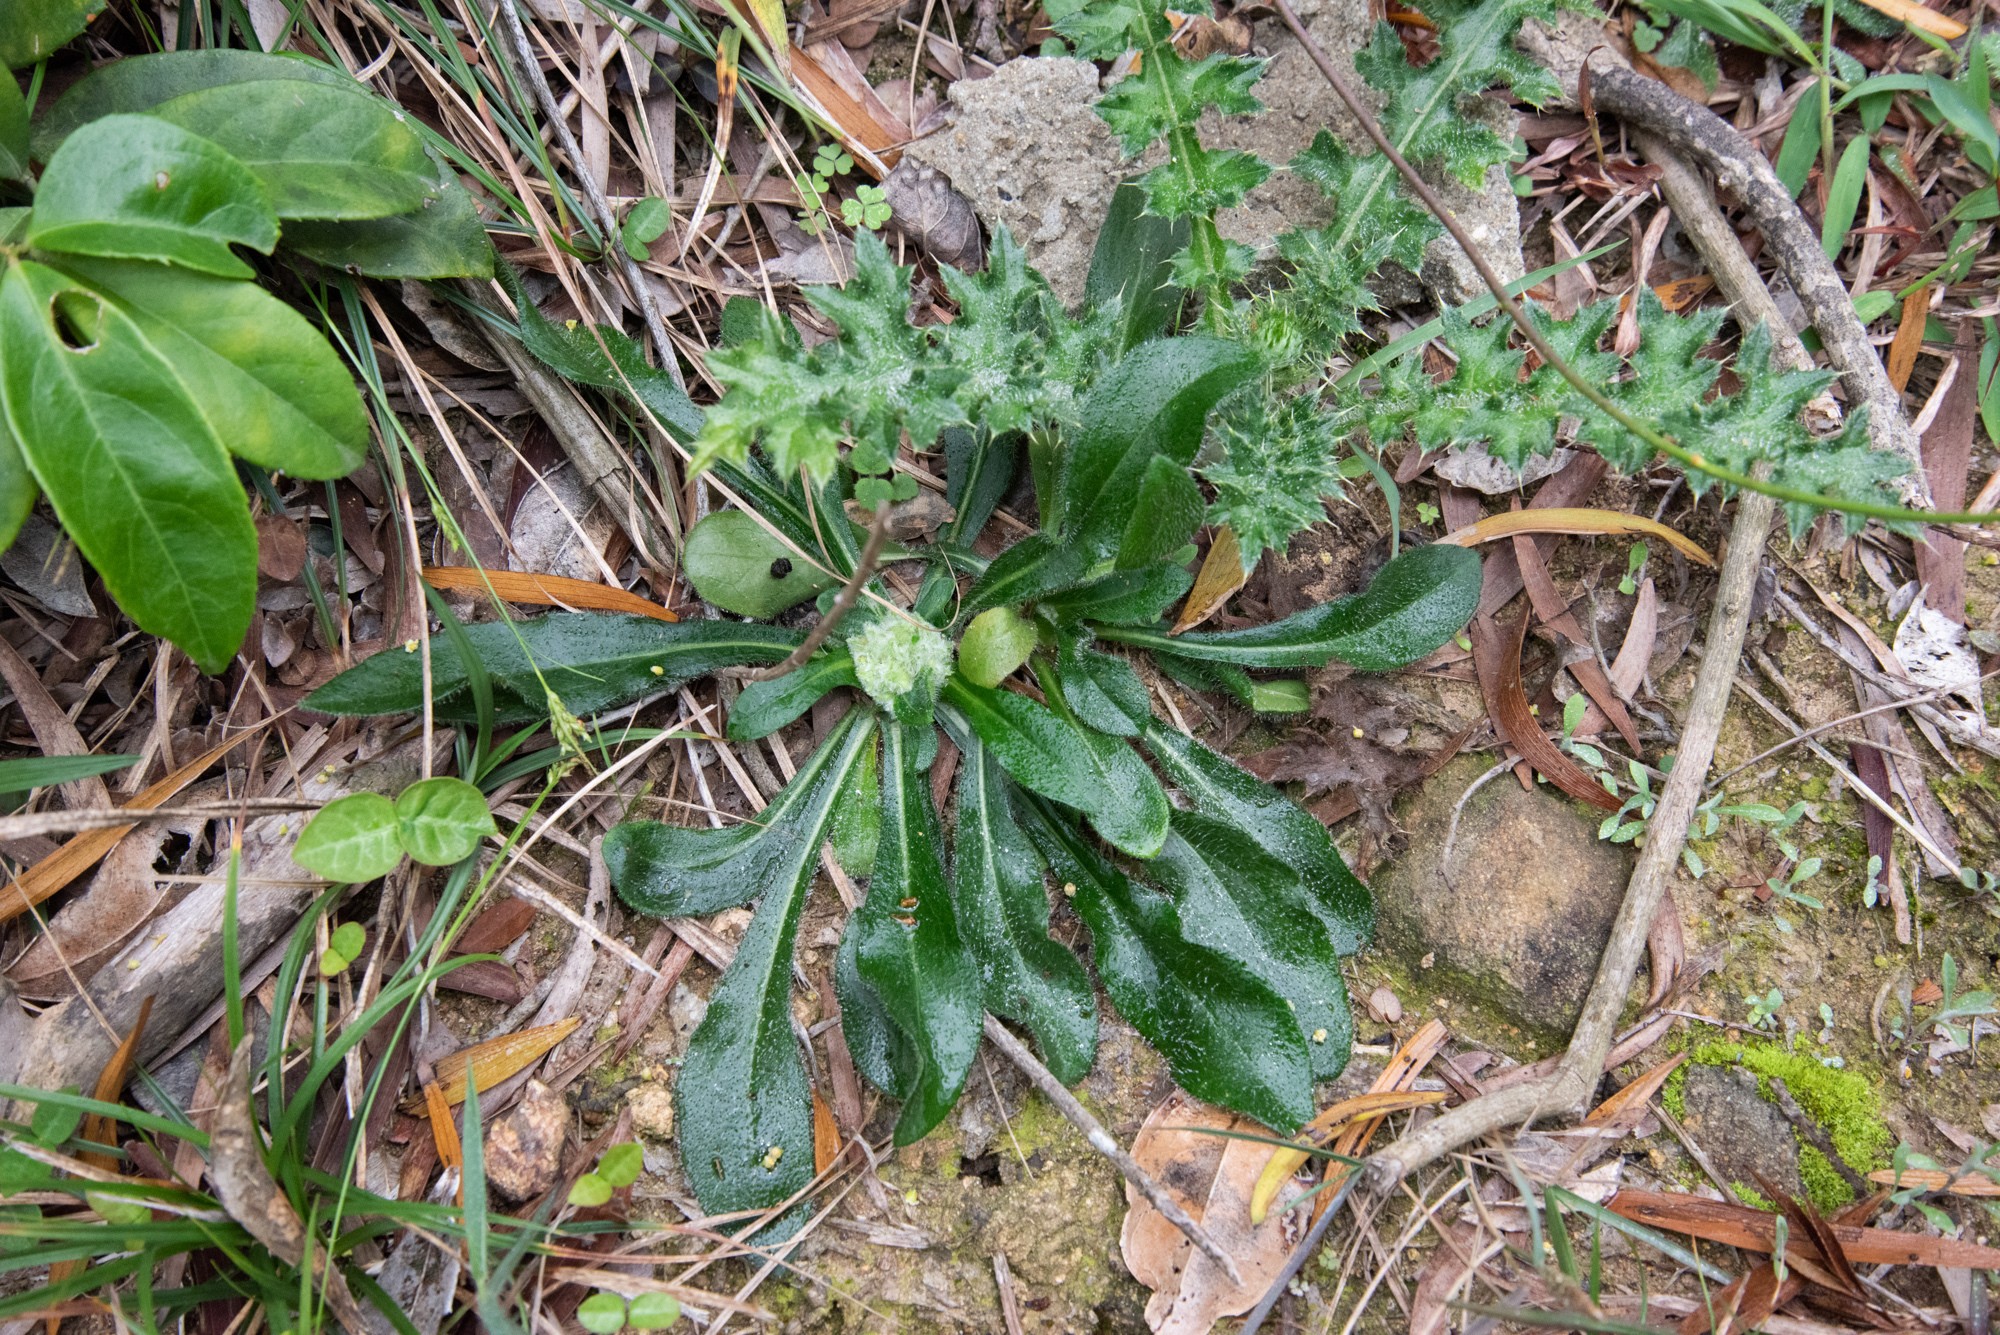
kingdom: Plantae
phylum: Tracheophyta
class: Magnoliopsida
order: Asterales
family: Asteraceae
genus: Metamyriactis
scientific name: Metamyriactis panduratus
